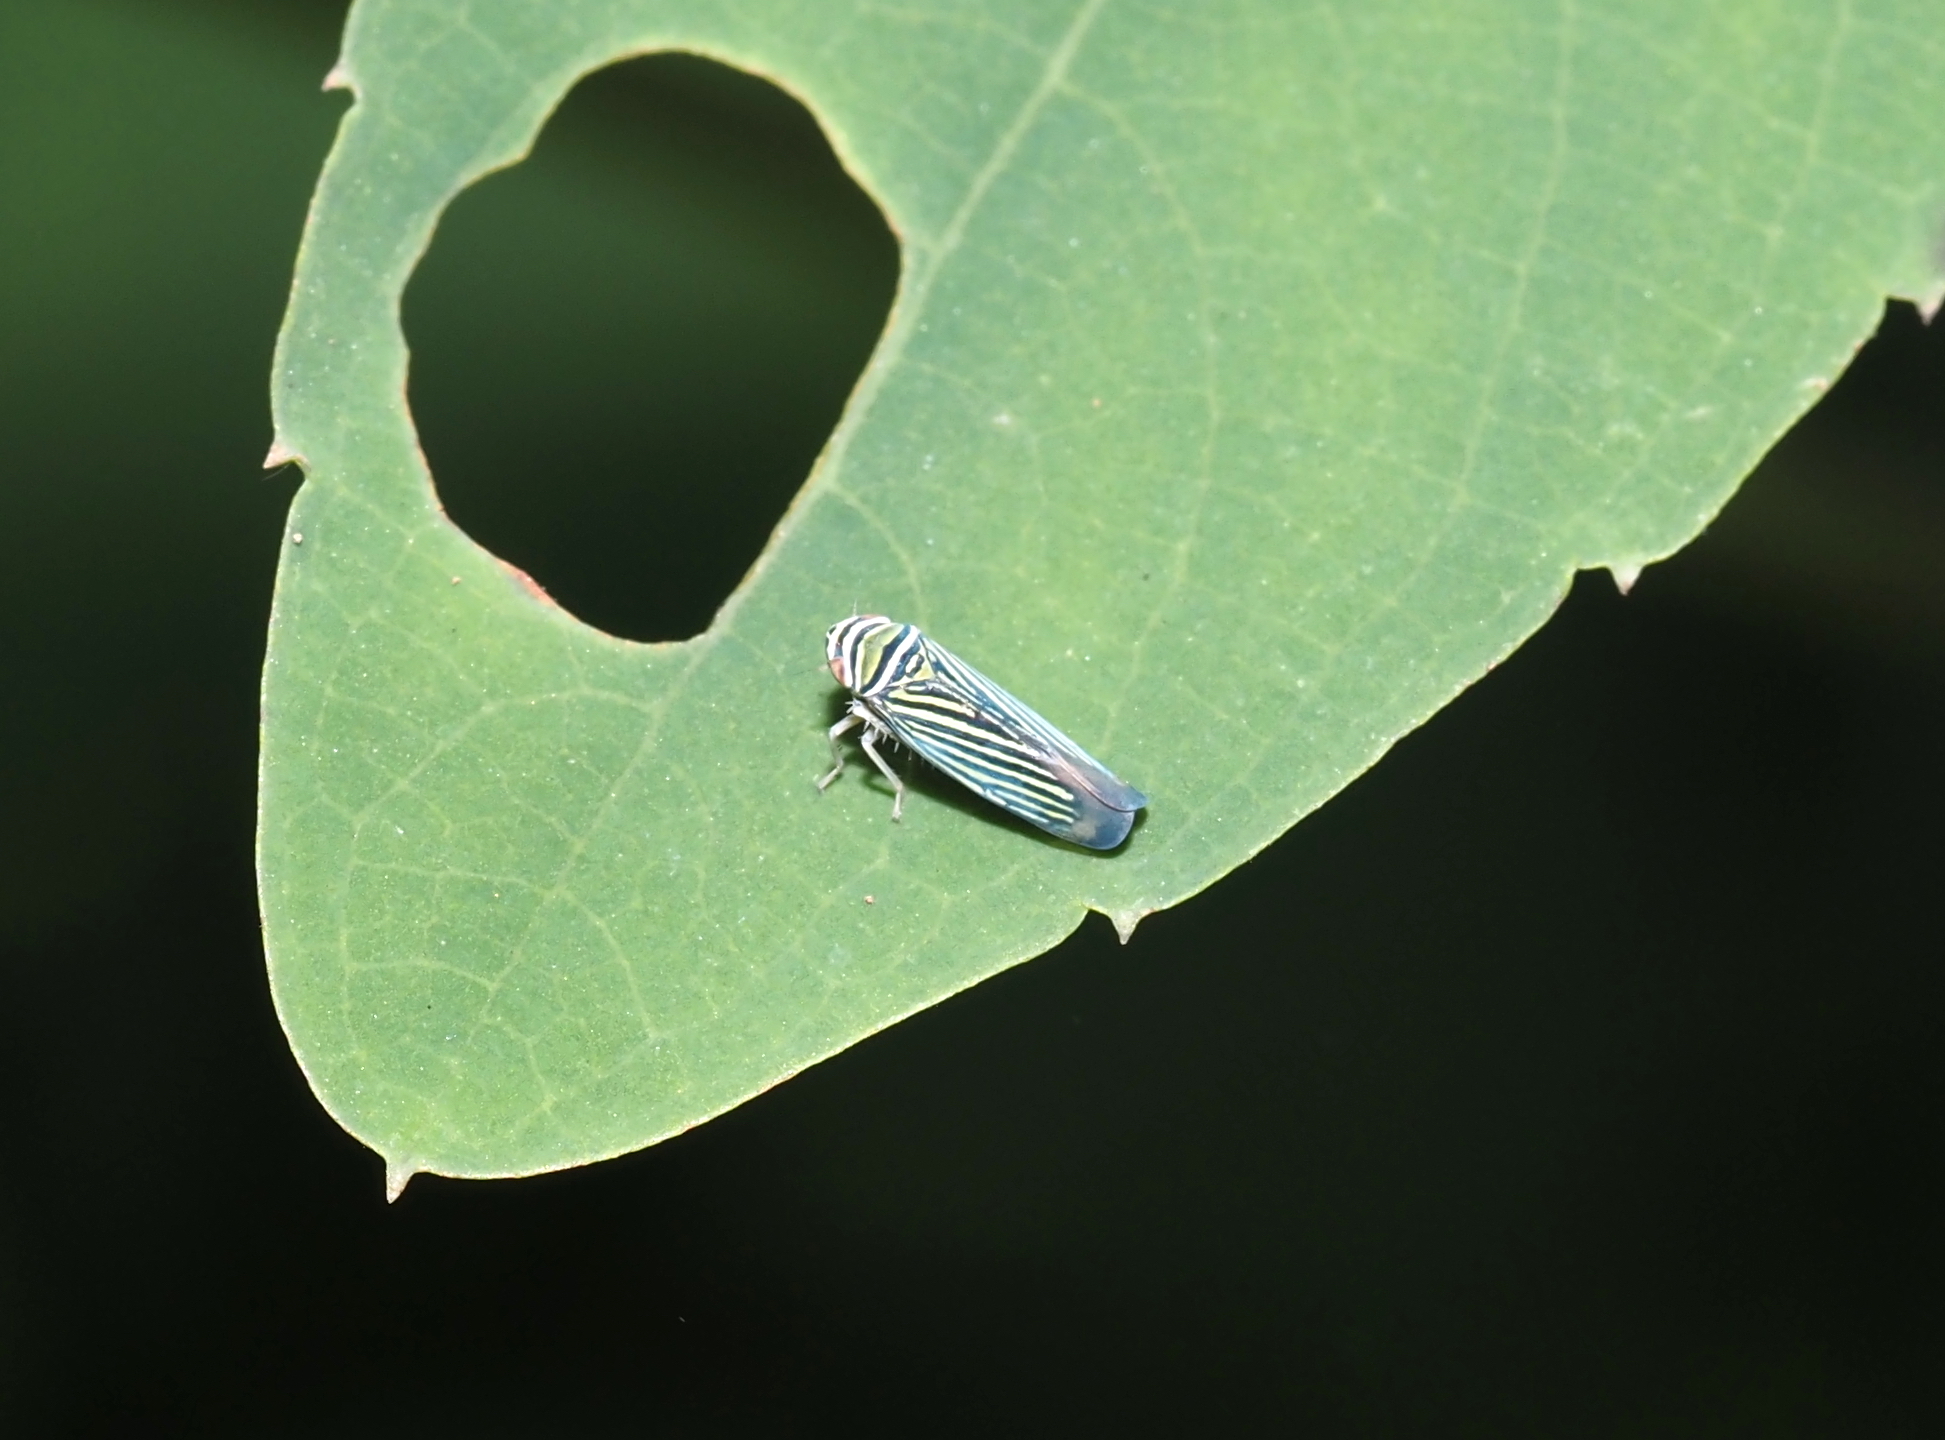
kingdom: Animalia
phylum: Arthropoda
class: Insecta
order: Hemiptera
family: Cicadellidae
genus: Tylozygus
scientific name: Tylozygus bifidus
